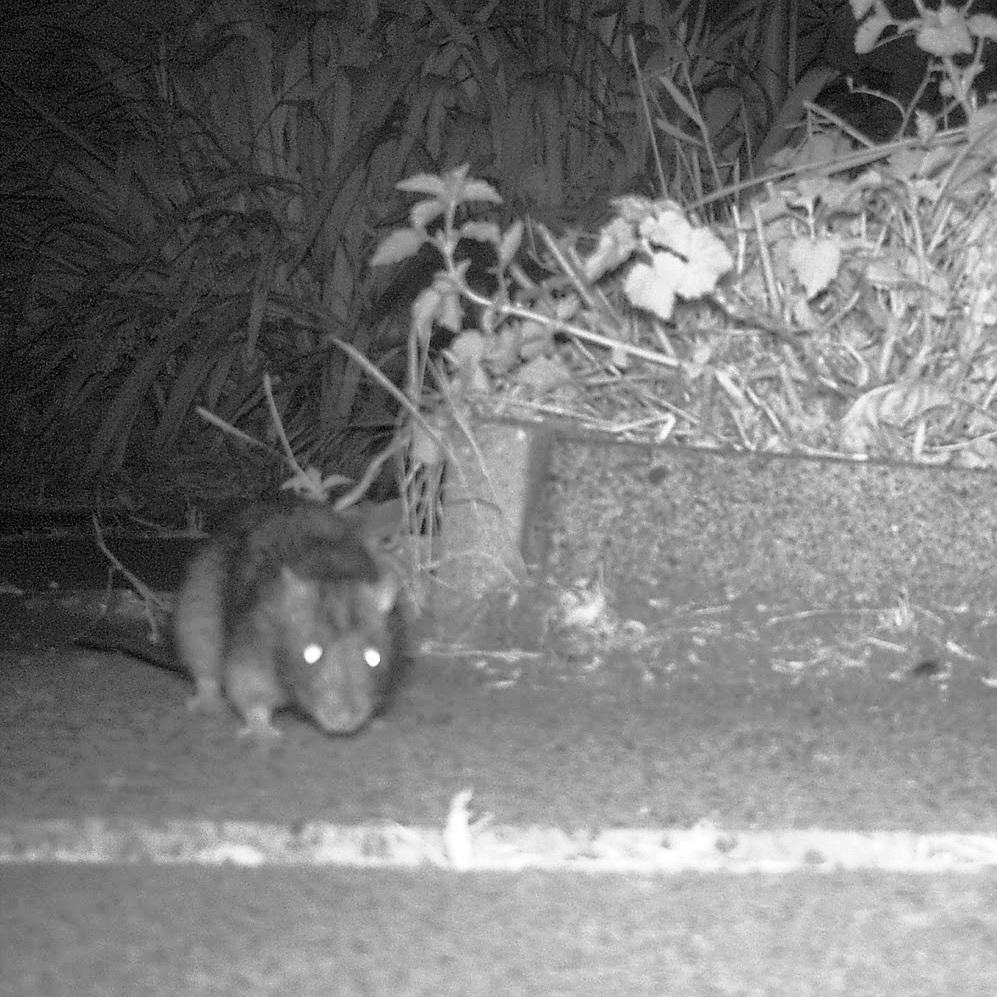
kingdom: Animalia
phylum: Chordata
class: Mammalia
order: Rodentia
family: Muridae
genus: Rattus
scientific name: Rattus norvegicus
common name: Brown rat
